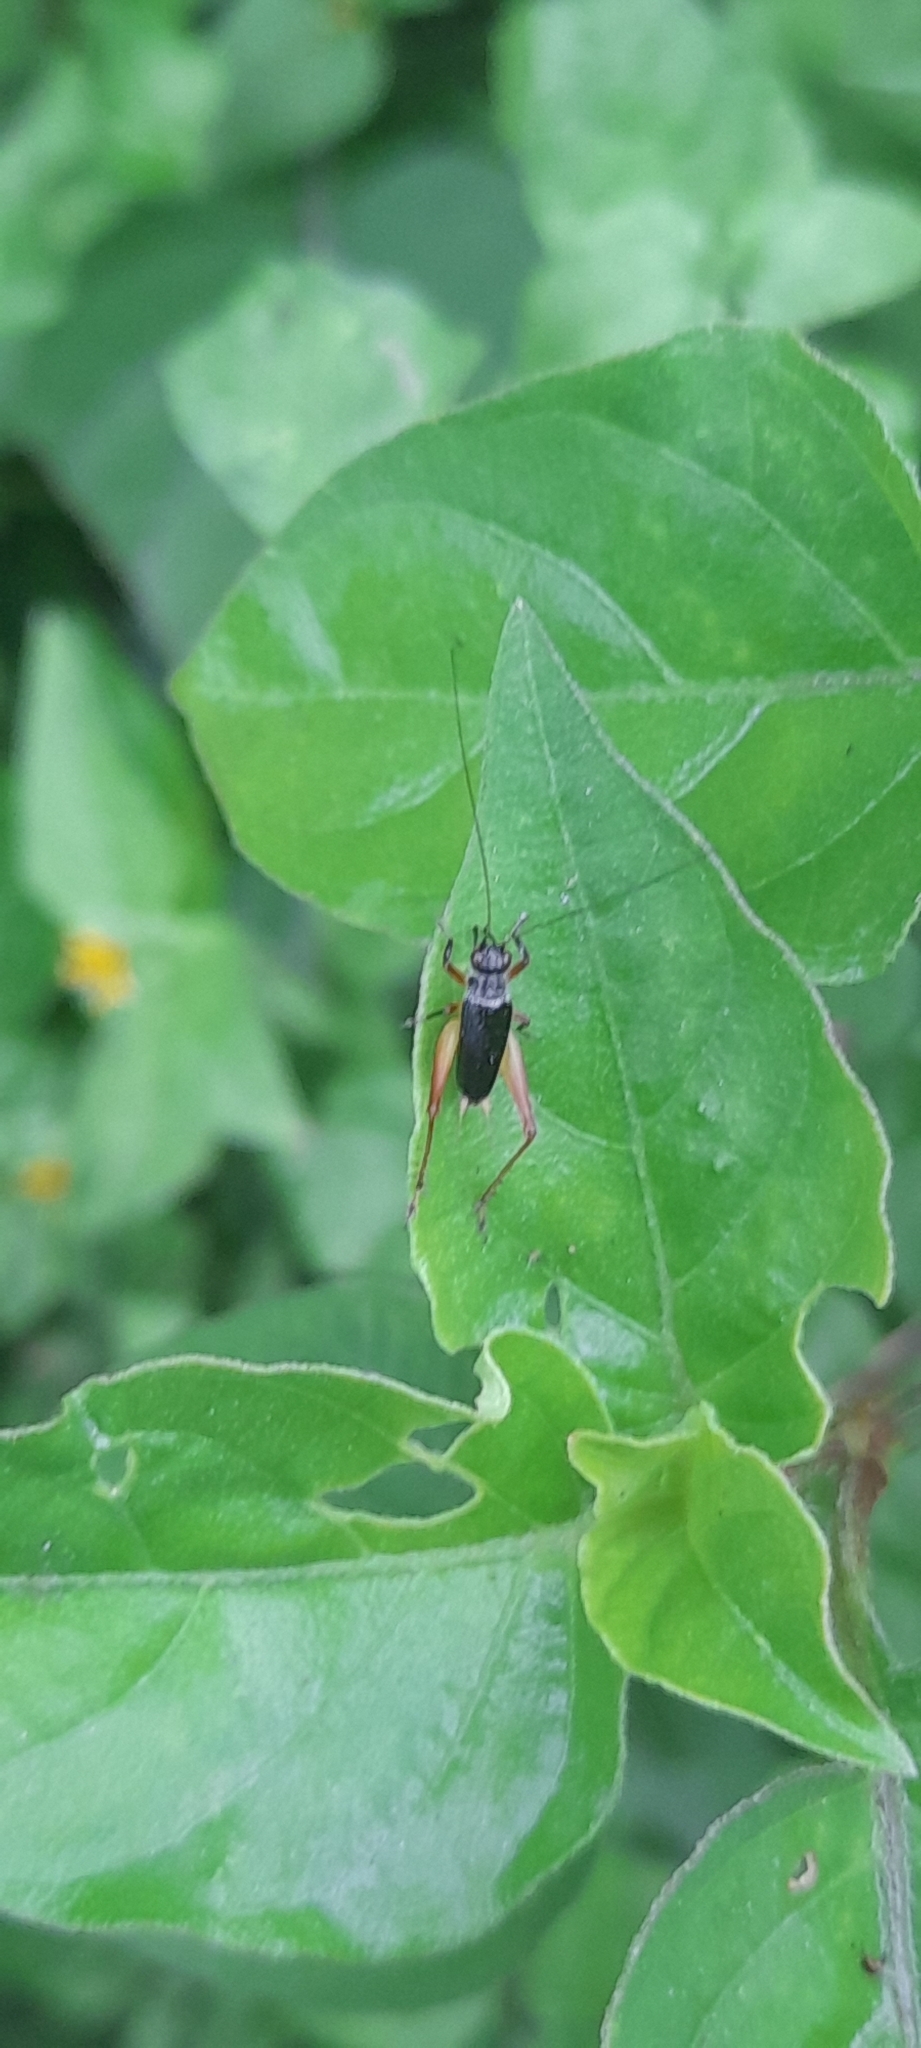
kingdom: Animalia
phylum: Arthropoda
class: Insecta
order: Orthoptera
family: Trigonidiidae
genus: Trigonidium
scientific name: Trigonidium cicindeloides
